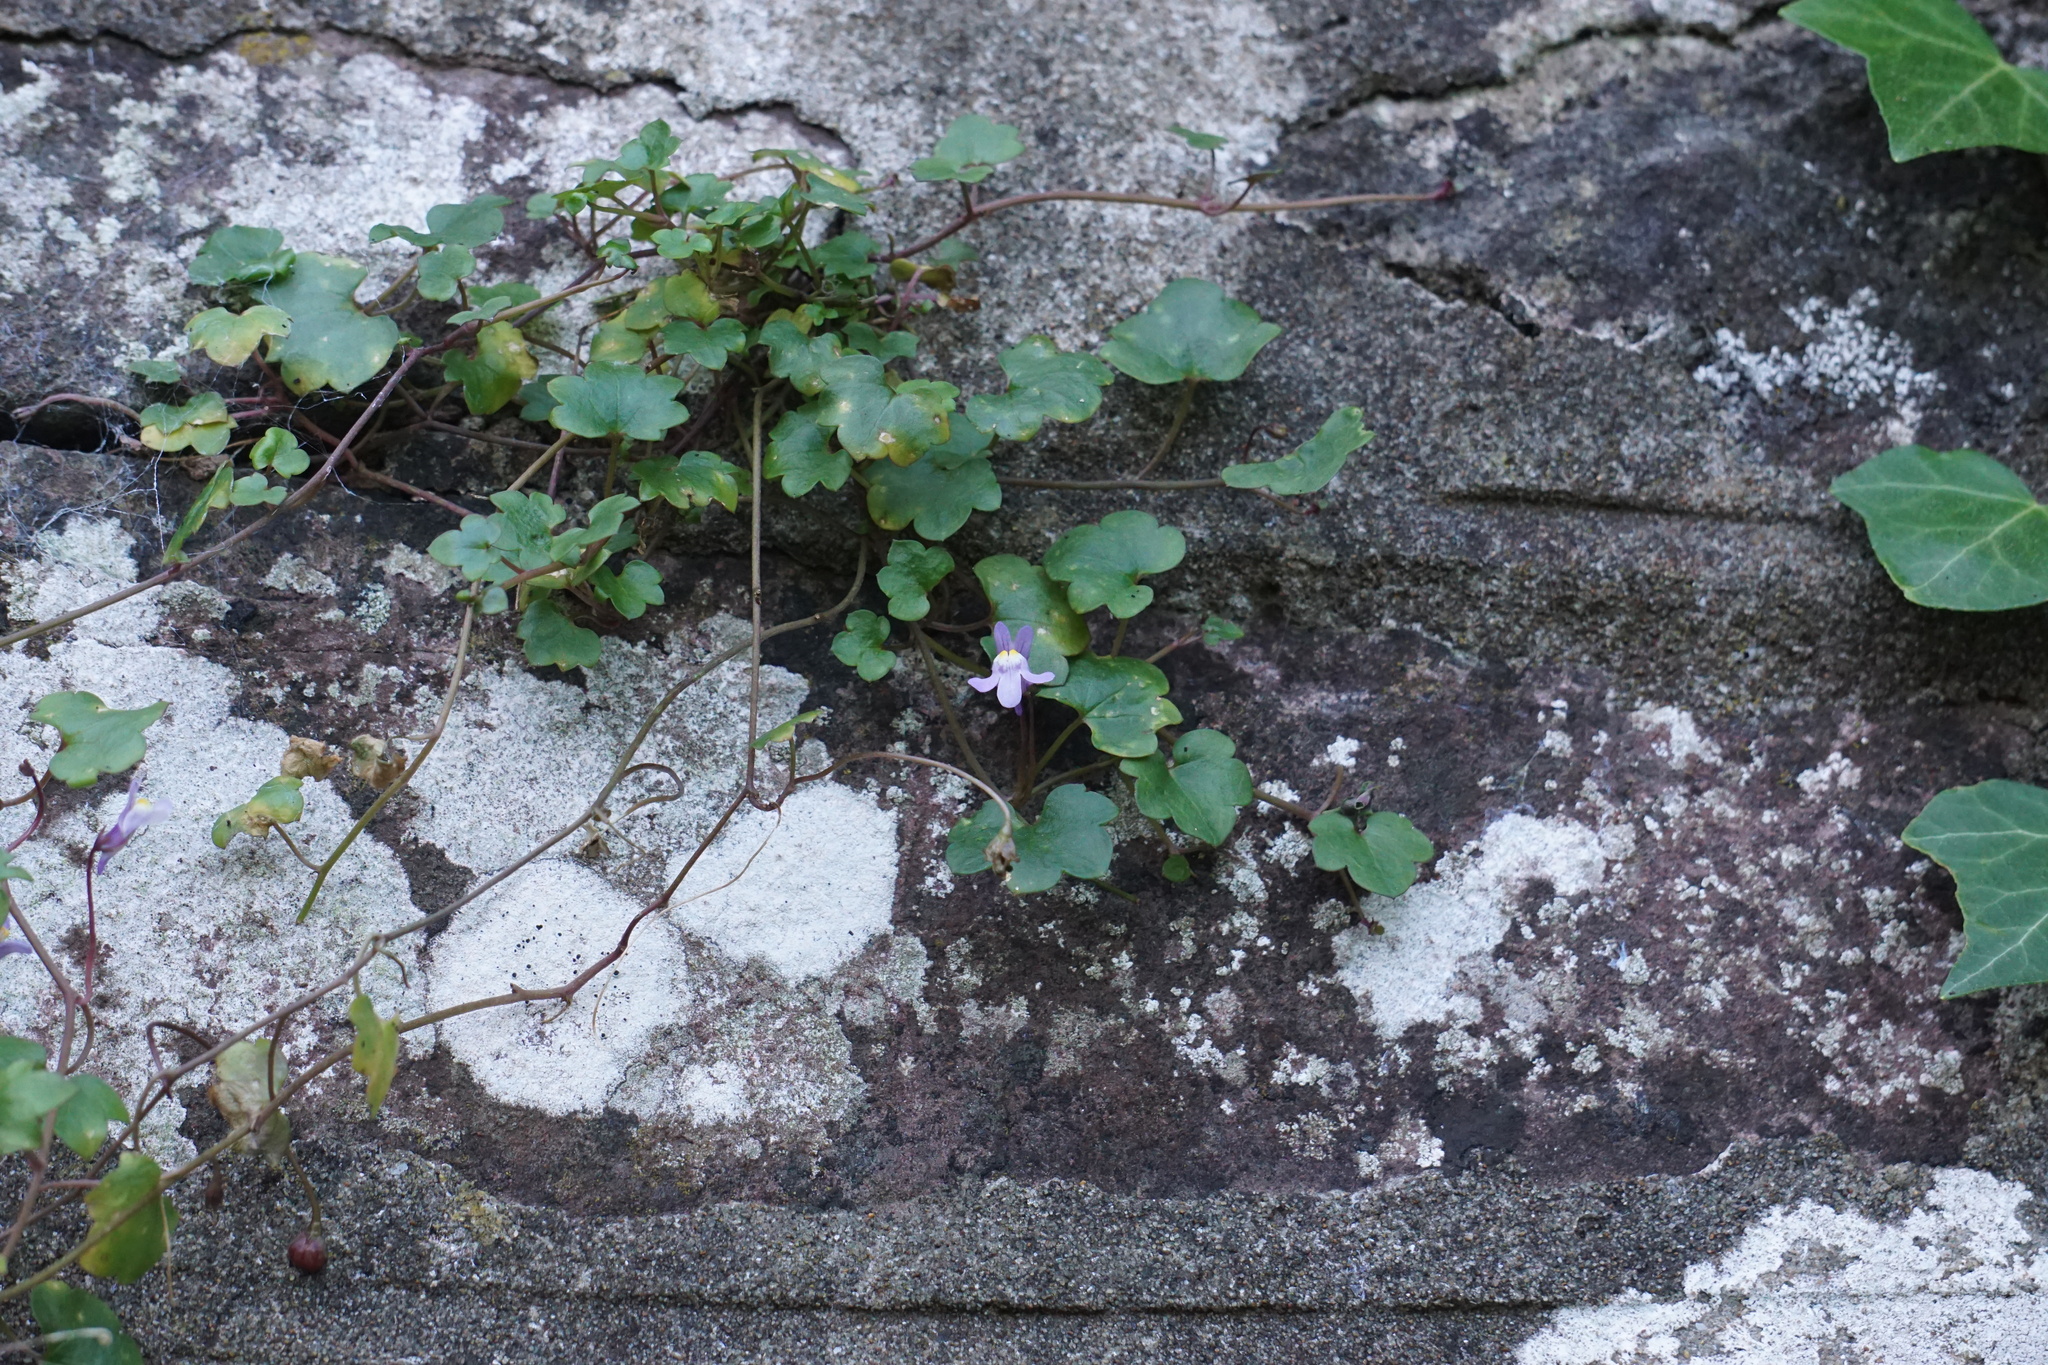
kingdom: Plantae
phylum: Tracheophyta
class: Magnoliopsida
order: Lamiales
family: Plantaginaceae
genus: Cymbalaria
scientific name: Cymbalaria muralis
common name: Ivy-leaved toadflax
